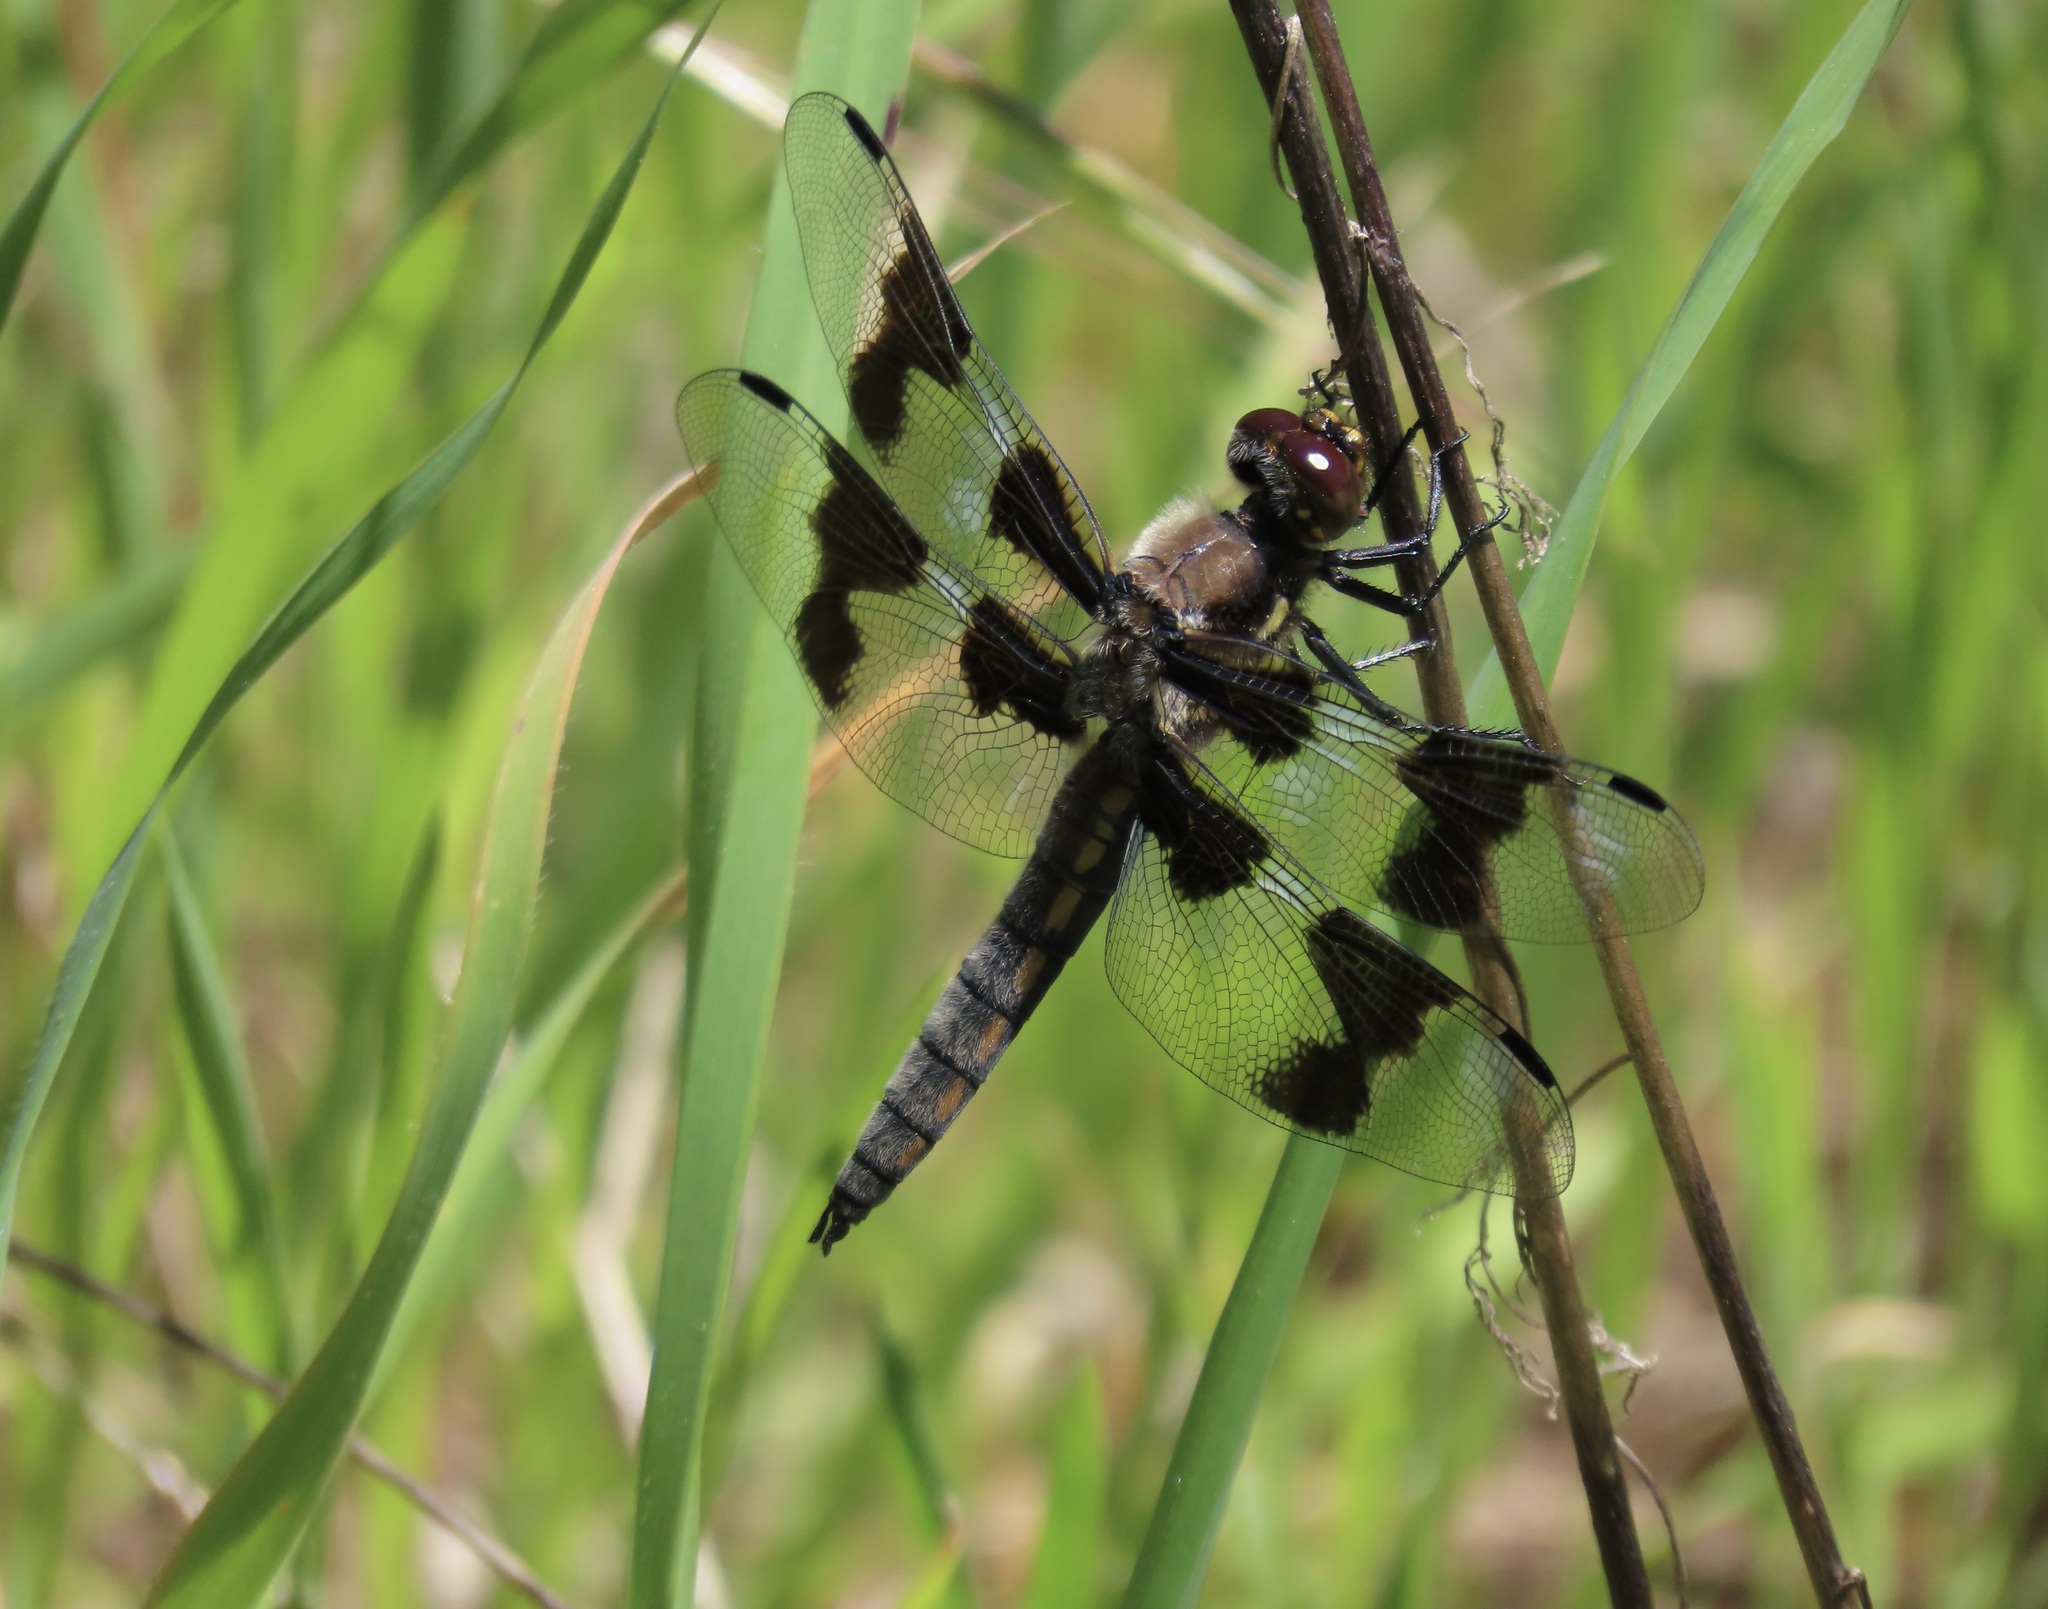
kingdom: Animalia
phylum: Arthropoda
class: Insecta
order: Odonata
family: Libellulidae
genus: Libellula
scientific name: Libellula forensis
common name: Eight-spotted skimmer
